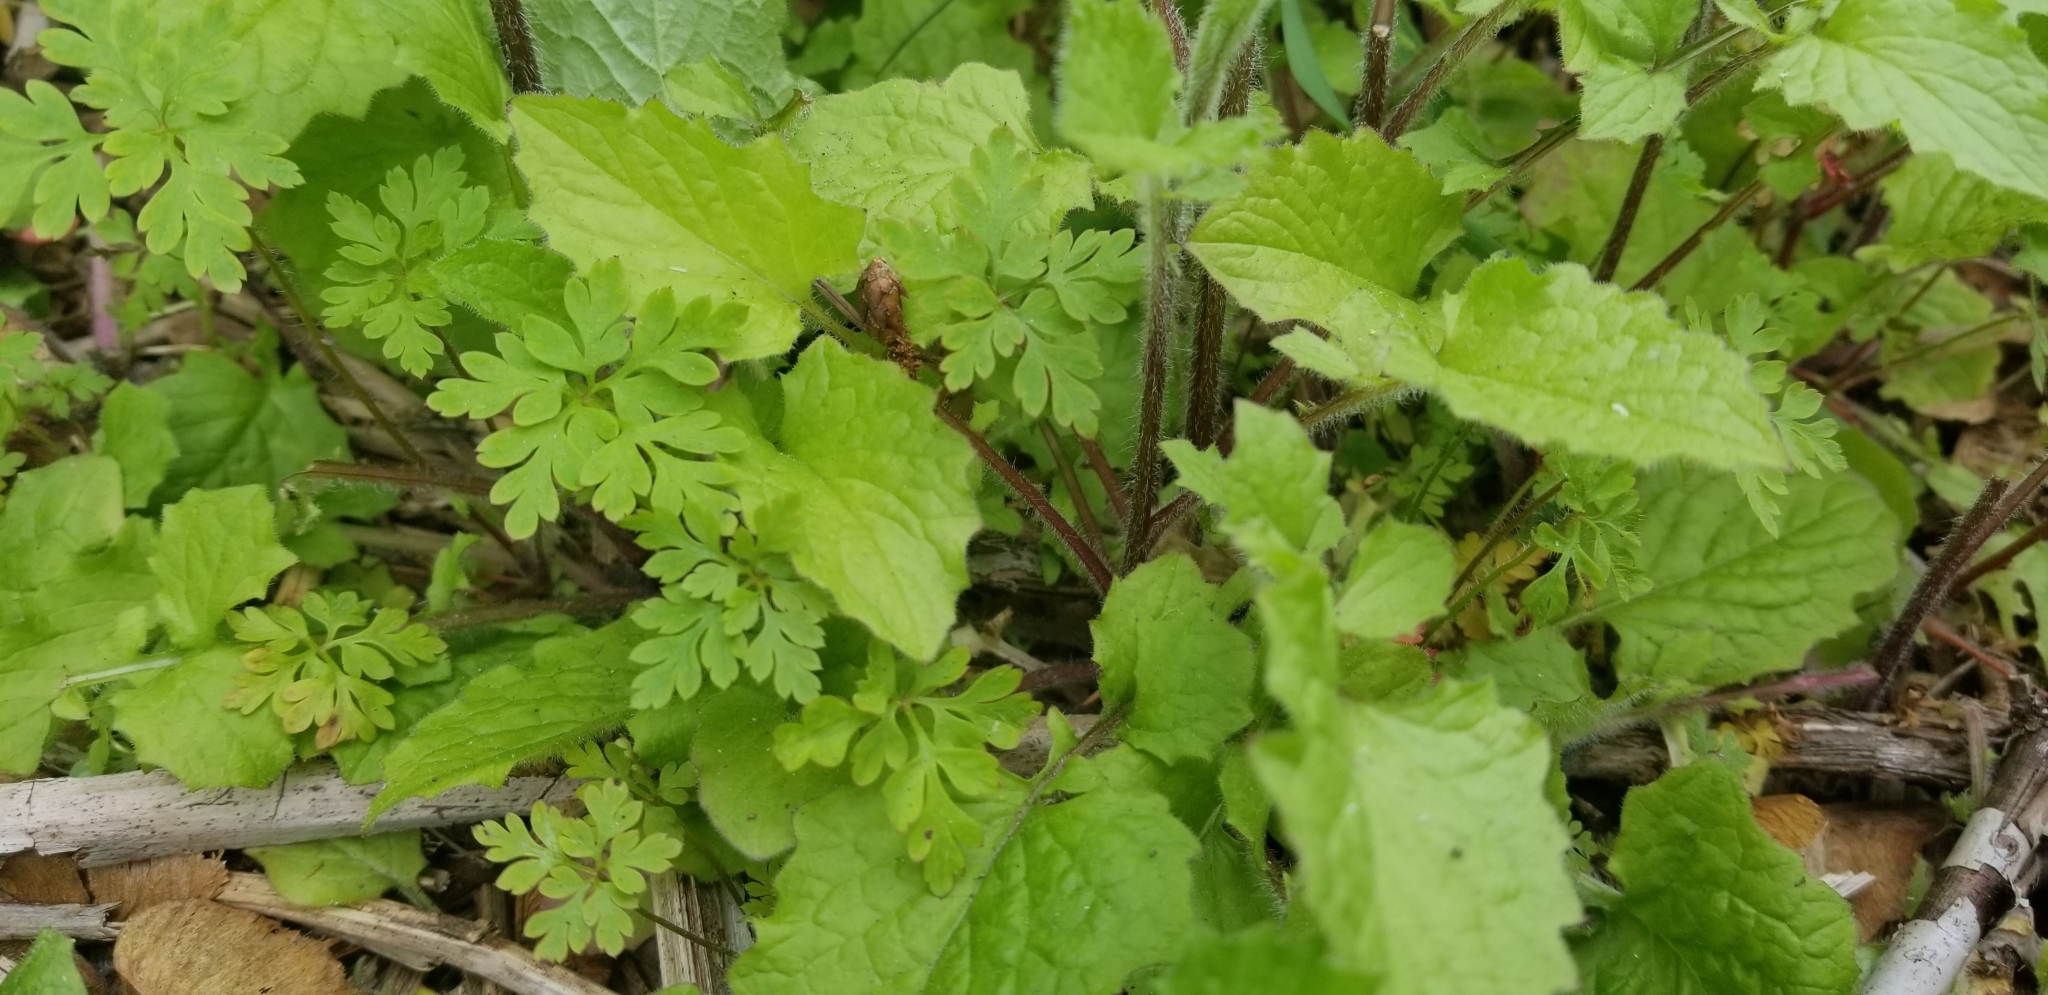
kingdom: Plantae
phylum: Tracheophyta
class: Magnoliopsida
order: Asterales
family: Asteraceae
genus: Lapsana
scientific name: Lapsana communis
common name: Nipplewort
